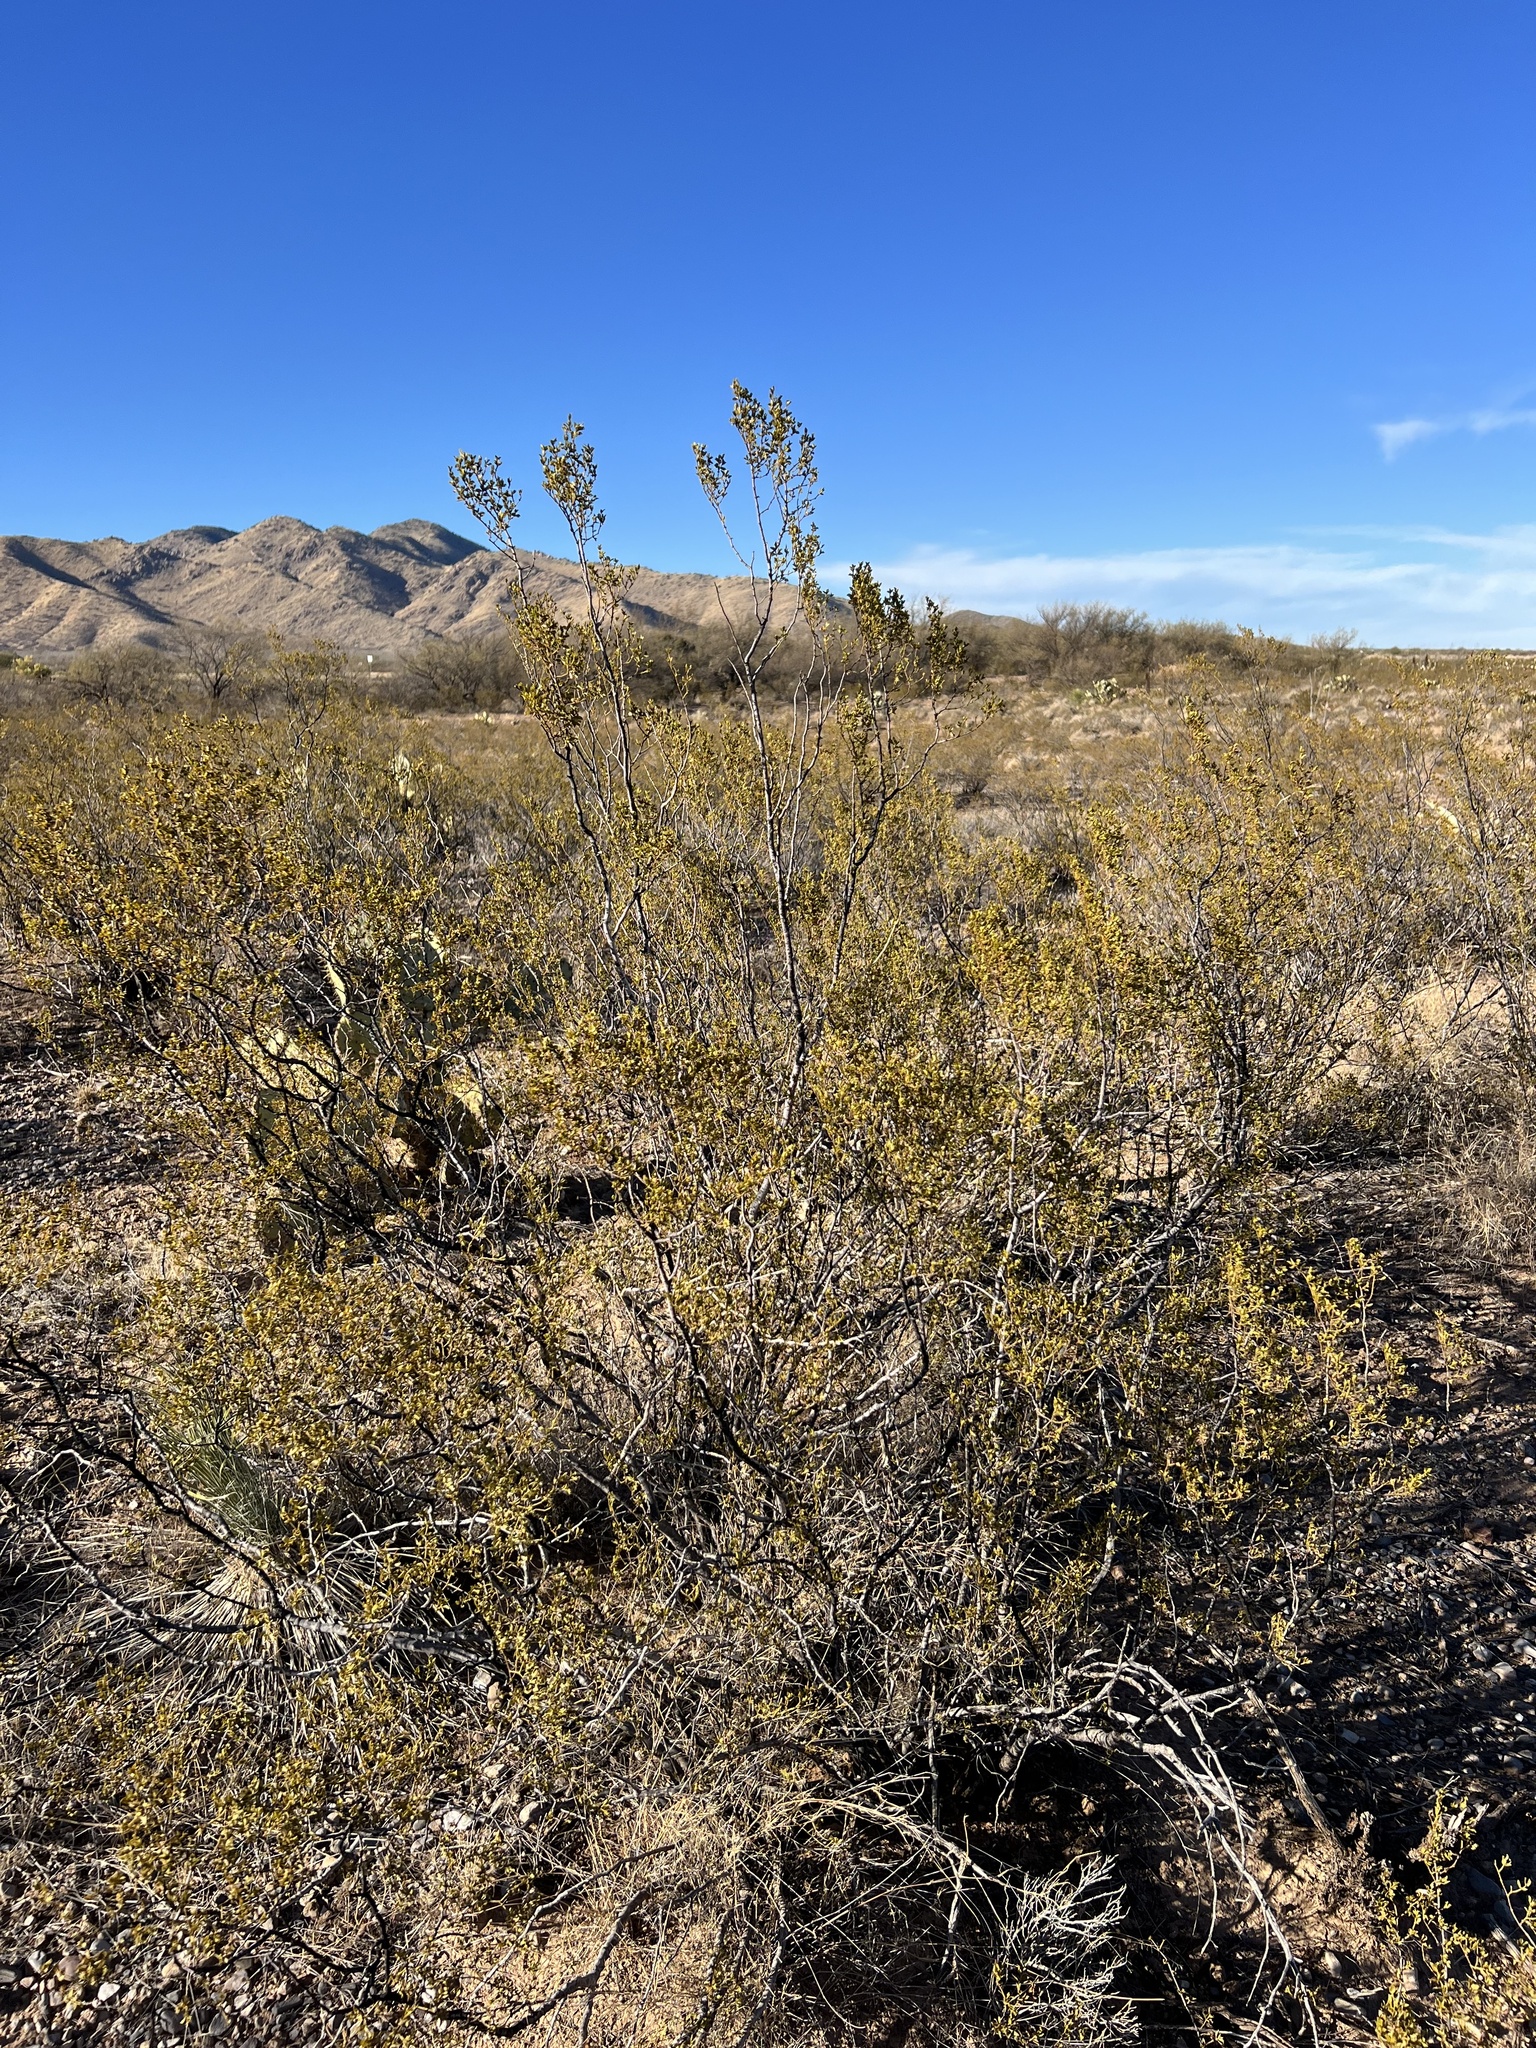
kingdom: Plantae
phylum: Tracheophyta
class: Magnoliopsida
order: Zygophyllales
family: Zygophyllaceae
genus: Larrea
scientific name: Larrea tridentata
